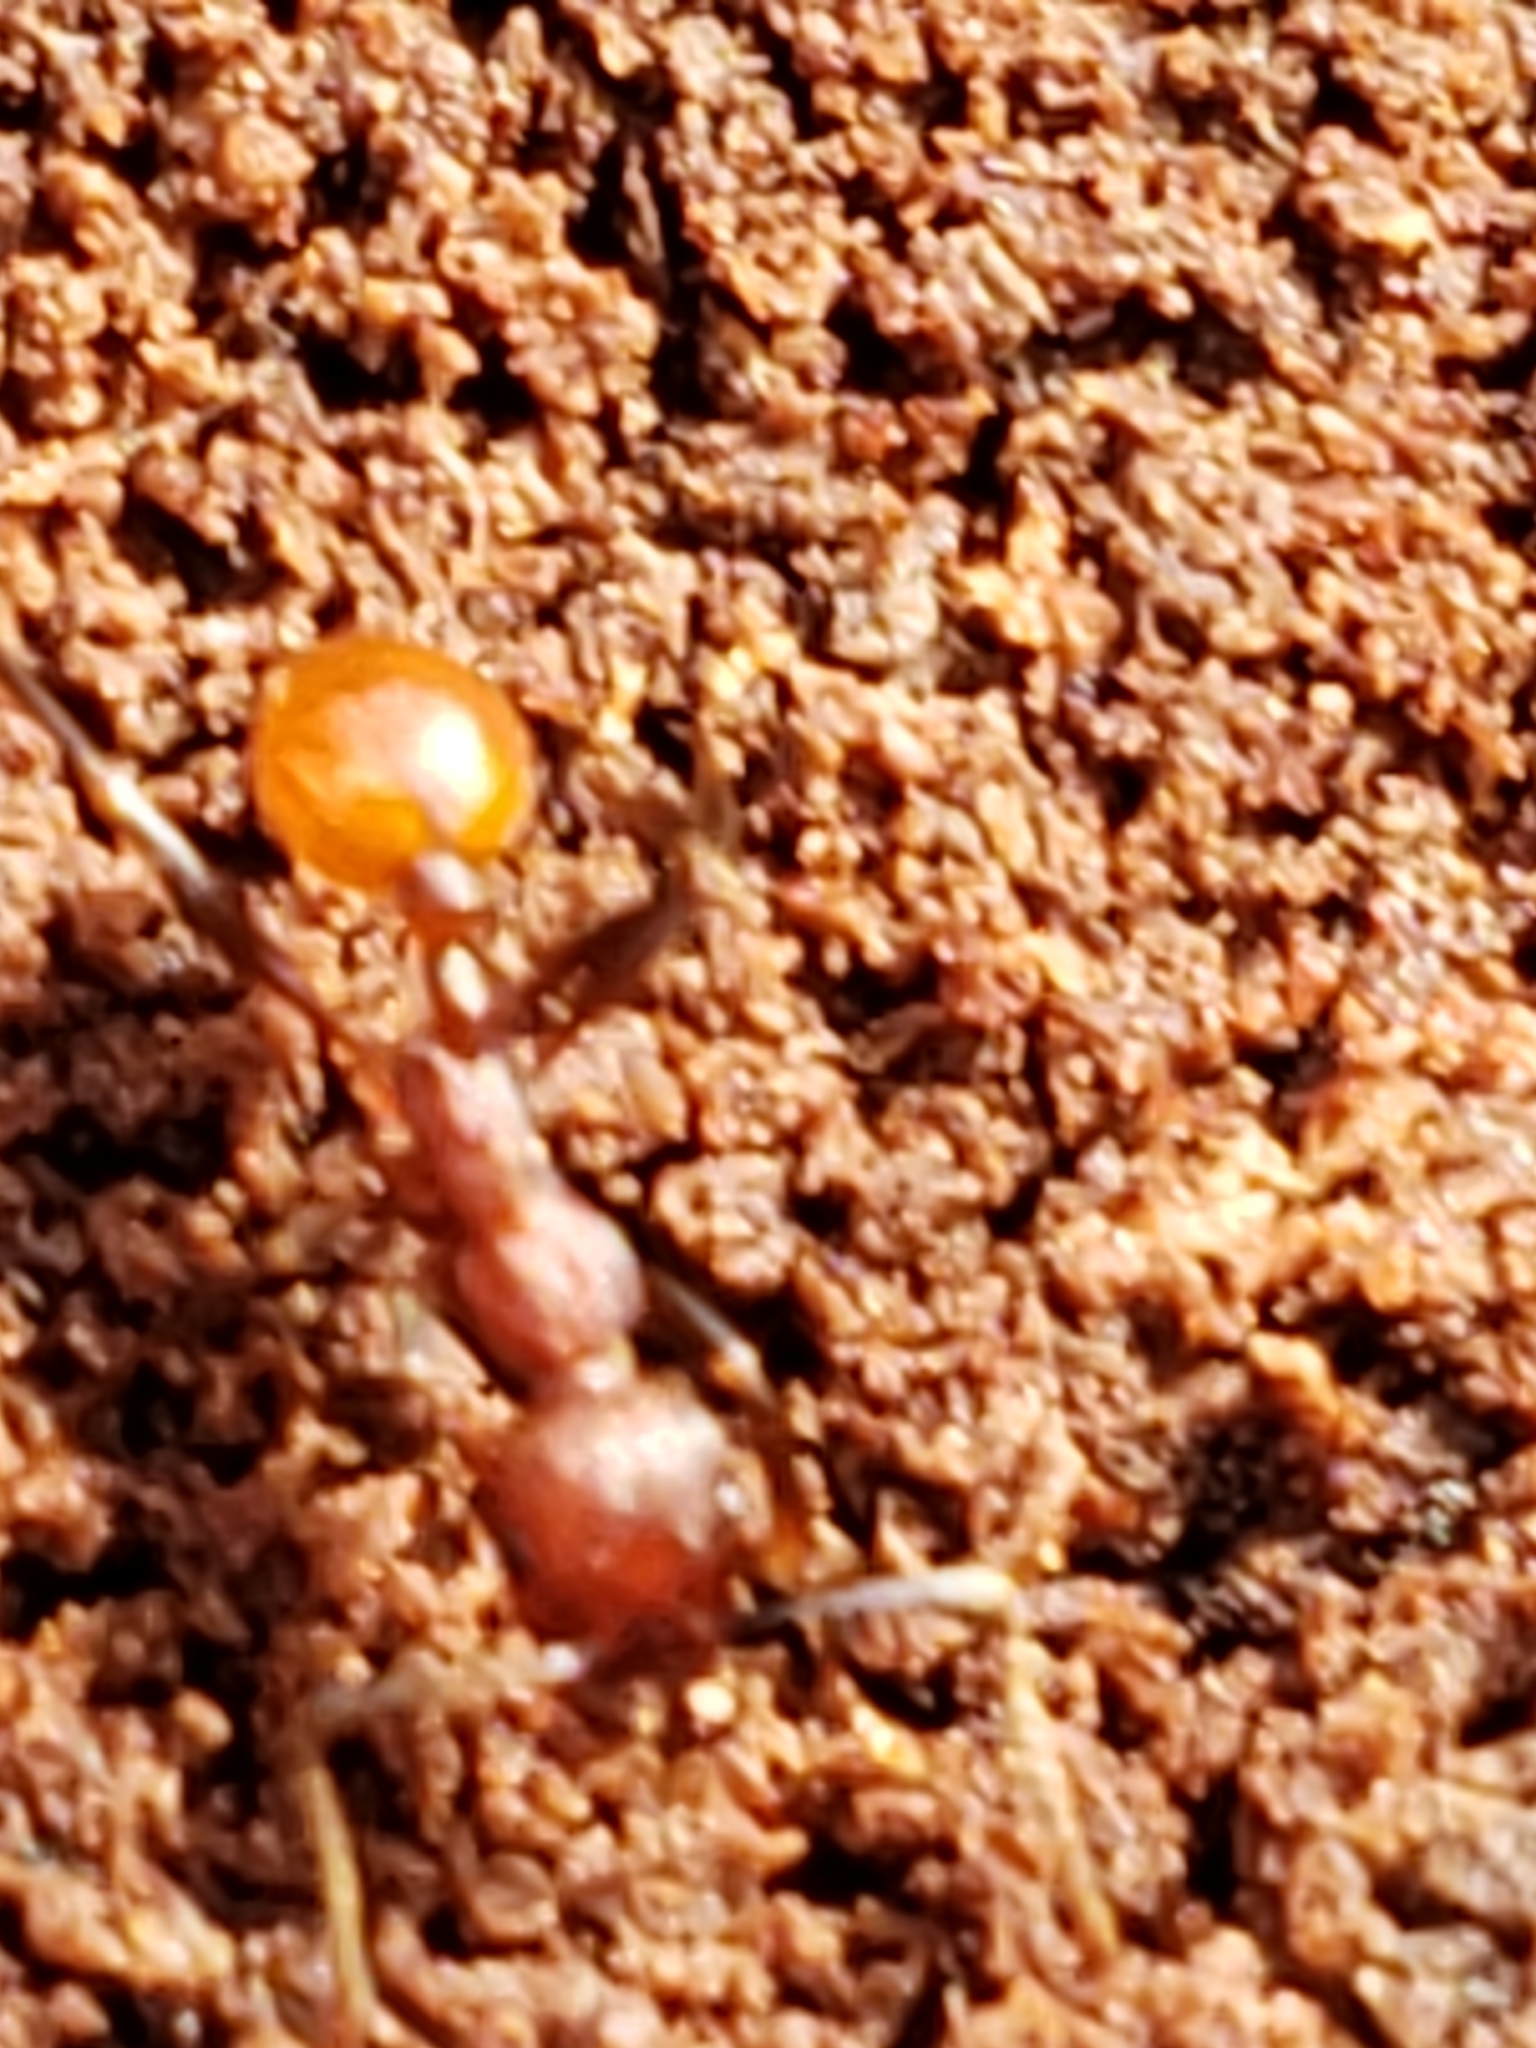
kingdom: Animalia
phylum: Arthropoda
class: Insecta
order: Hymenoptera
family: Formicidae
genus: Aphaenogaster
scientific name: Aphaenogaster tennesseensis
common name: Tennessee thread-waisted ant
